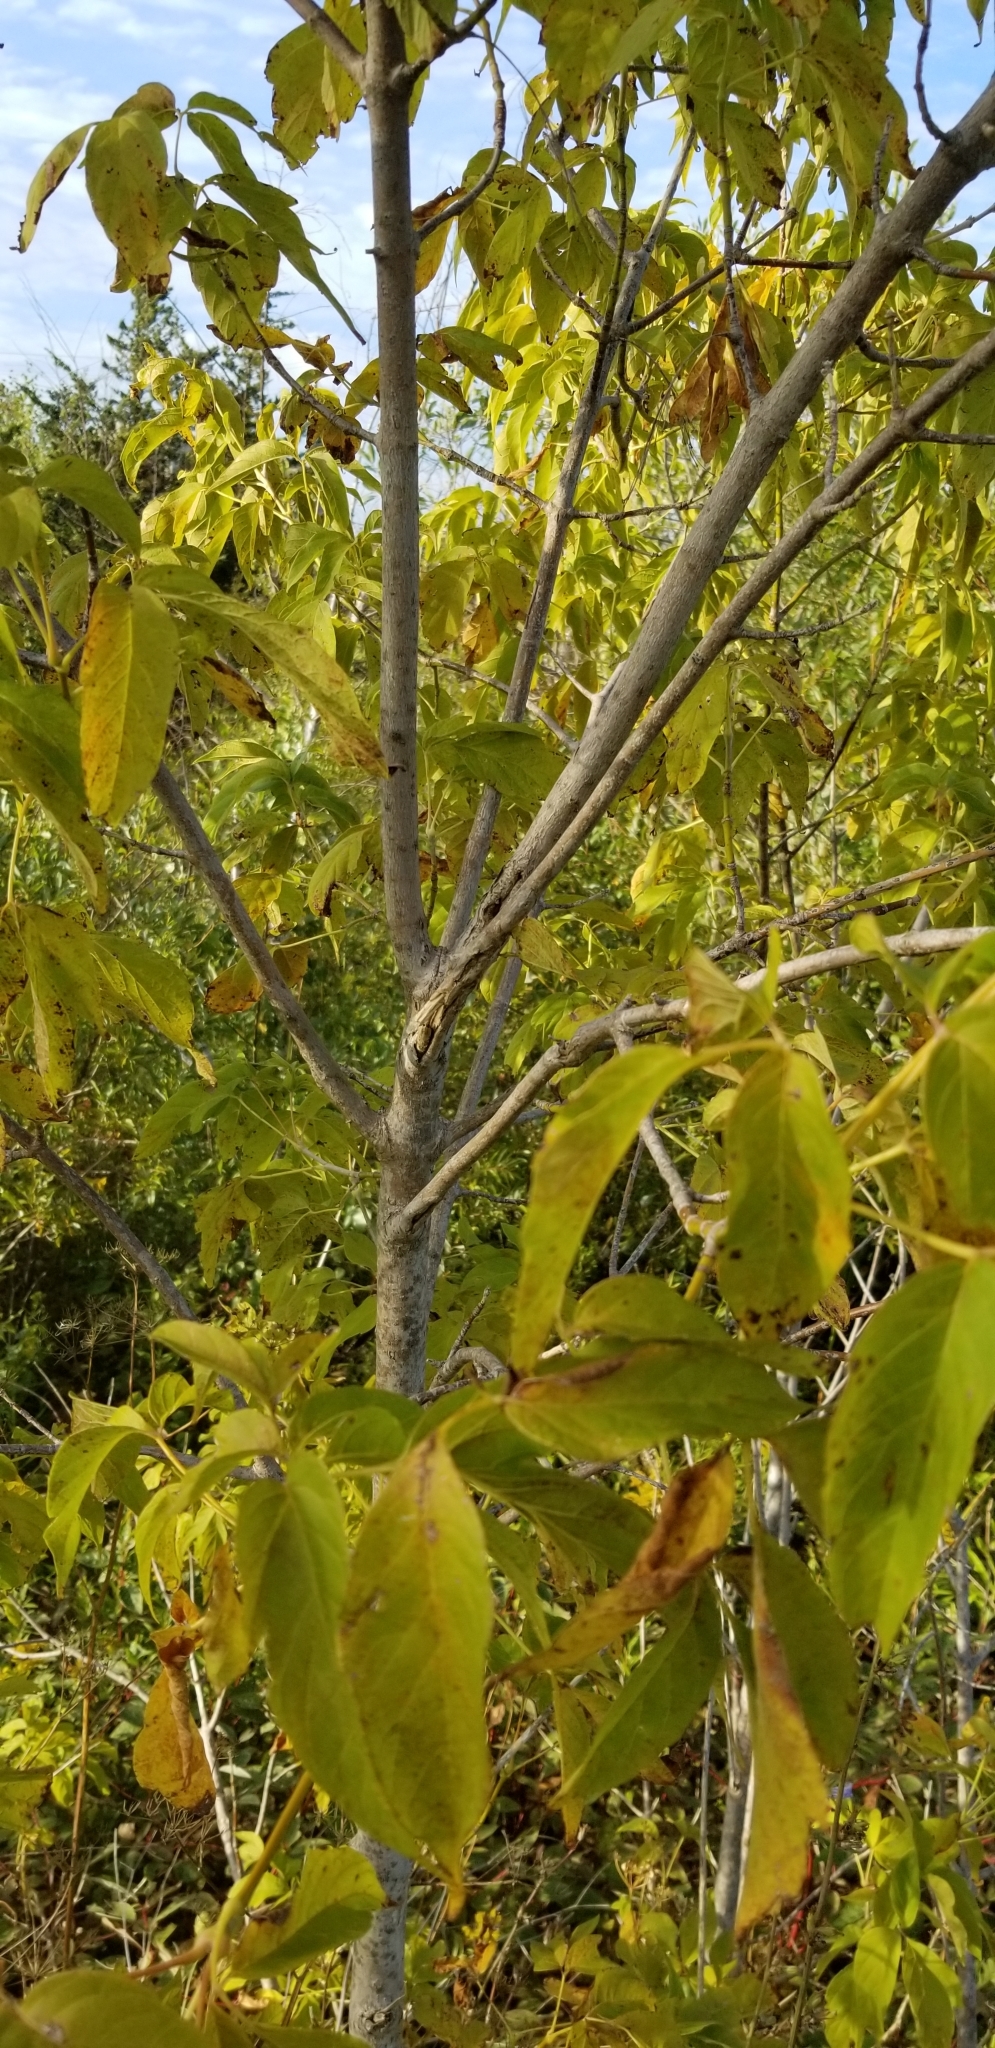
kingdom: Plantae
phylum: Tracheophyta
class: Magnoliopsida
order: Sapindales
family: Sapindaceae
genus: Acer
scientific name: Acer negundo
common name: Ashleaf maple
